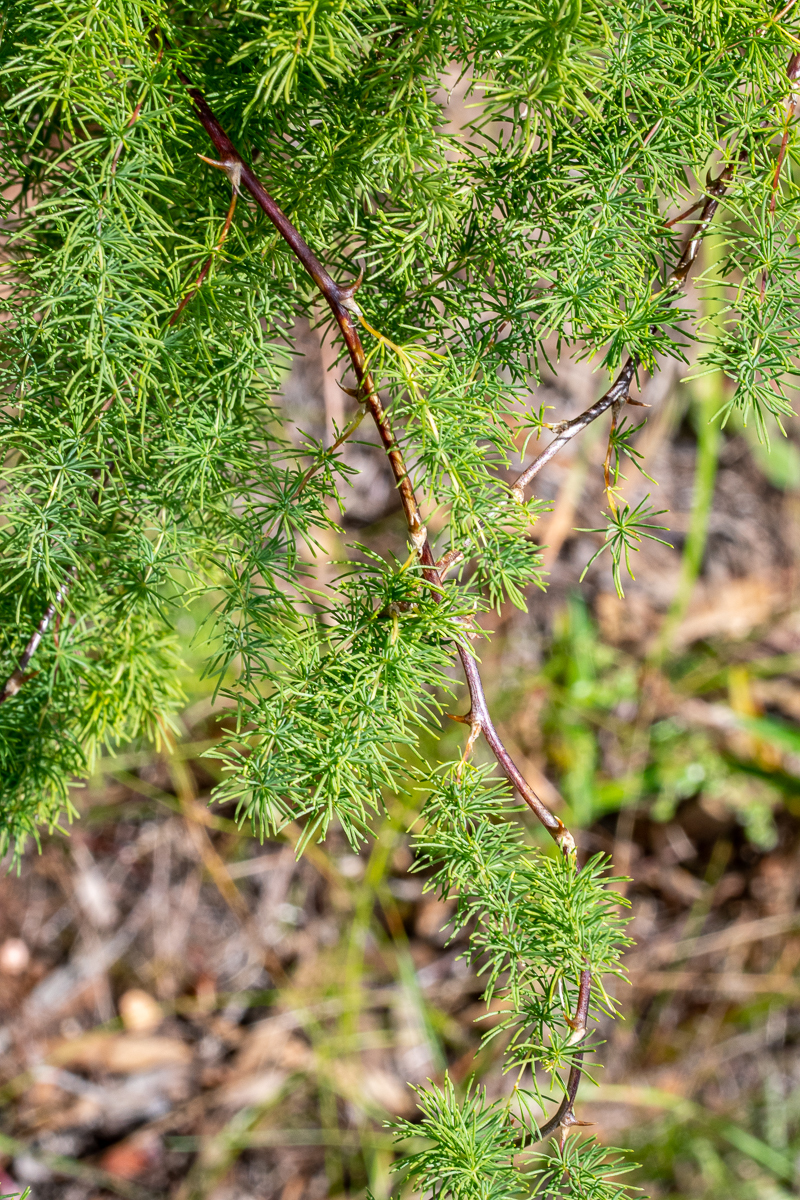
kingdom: Plantae
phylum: Tracheophyta
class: Liliopsida
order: Asparagales
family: Asparagaceae
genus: Asparagus
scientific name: Asparagus rubicundus
